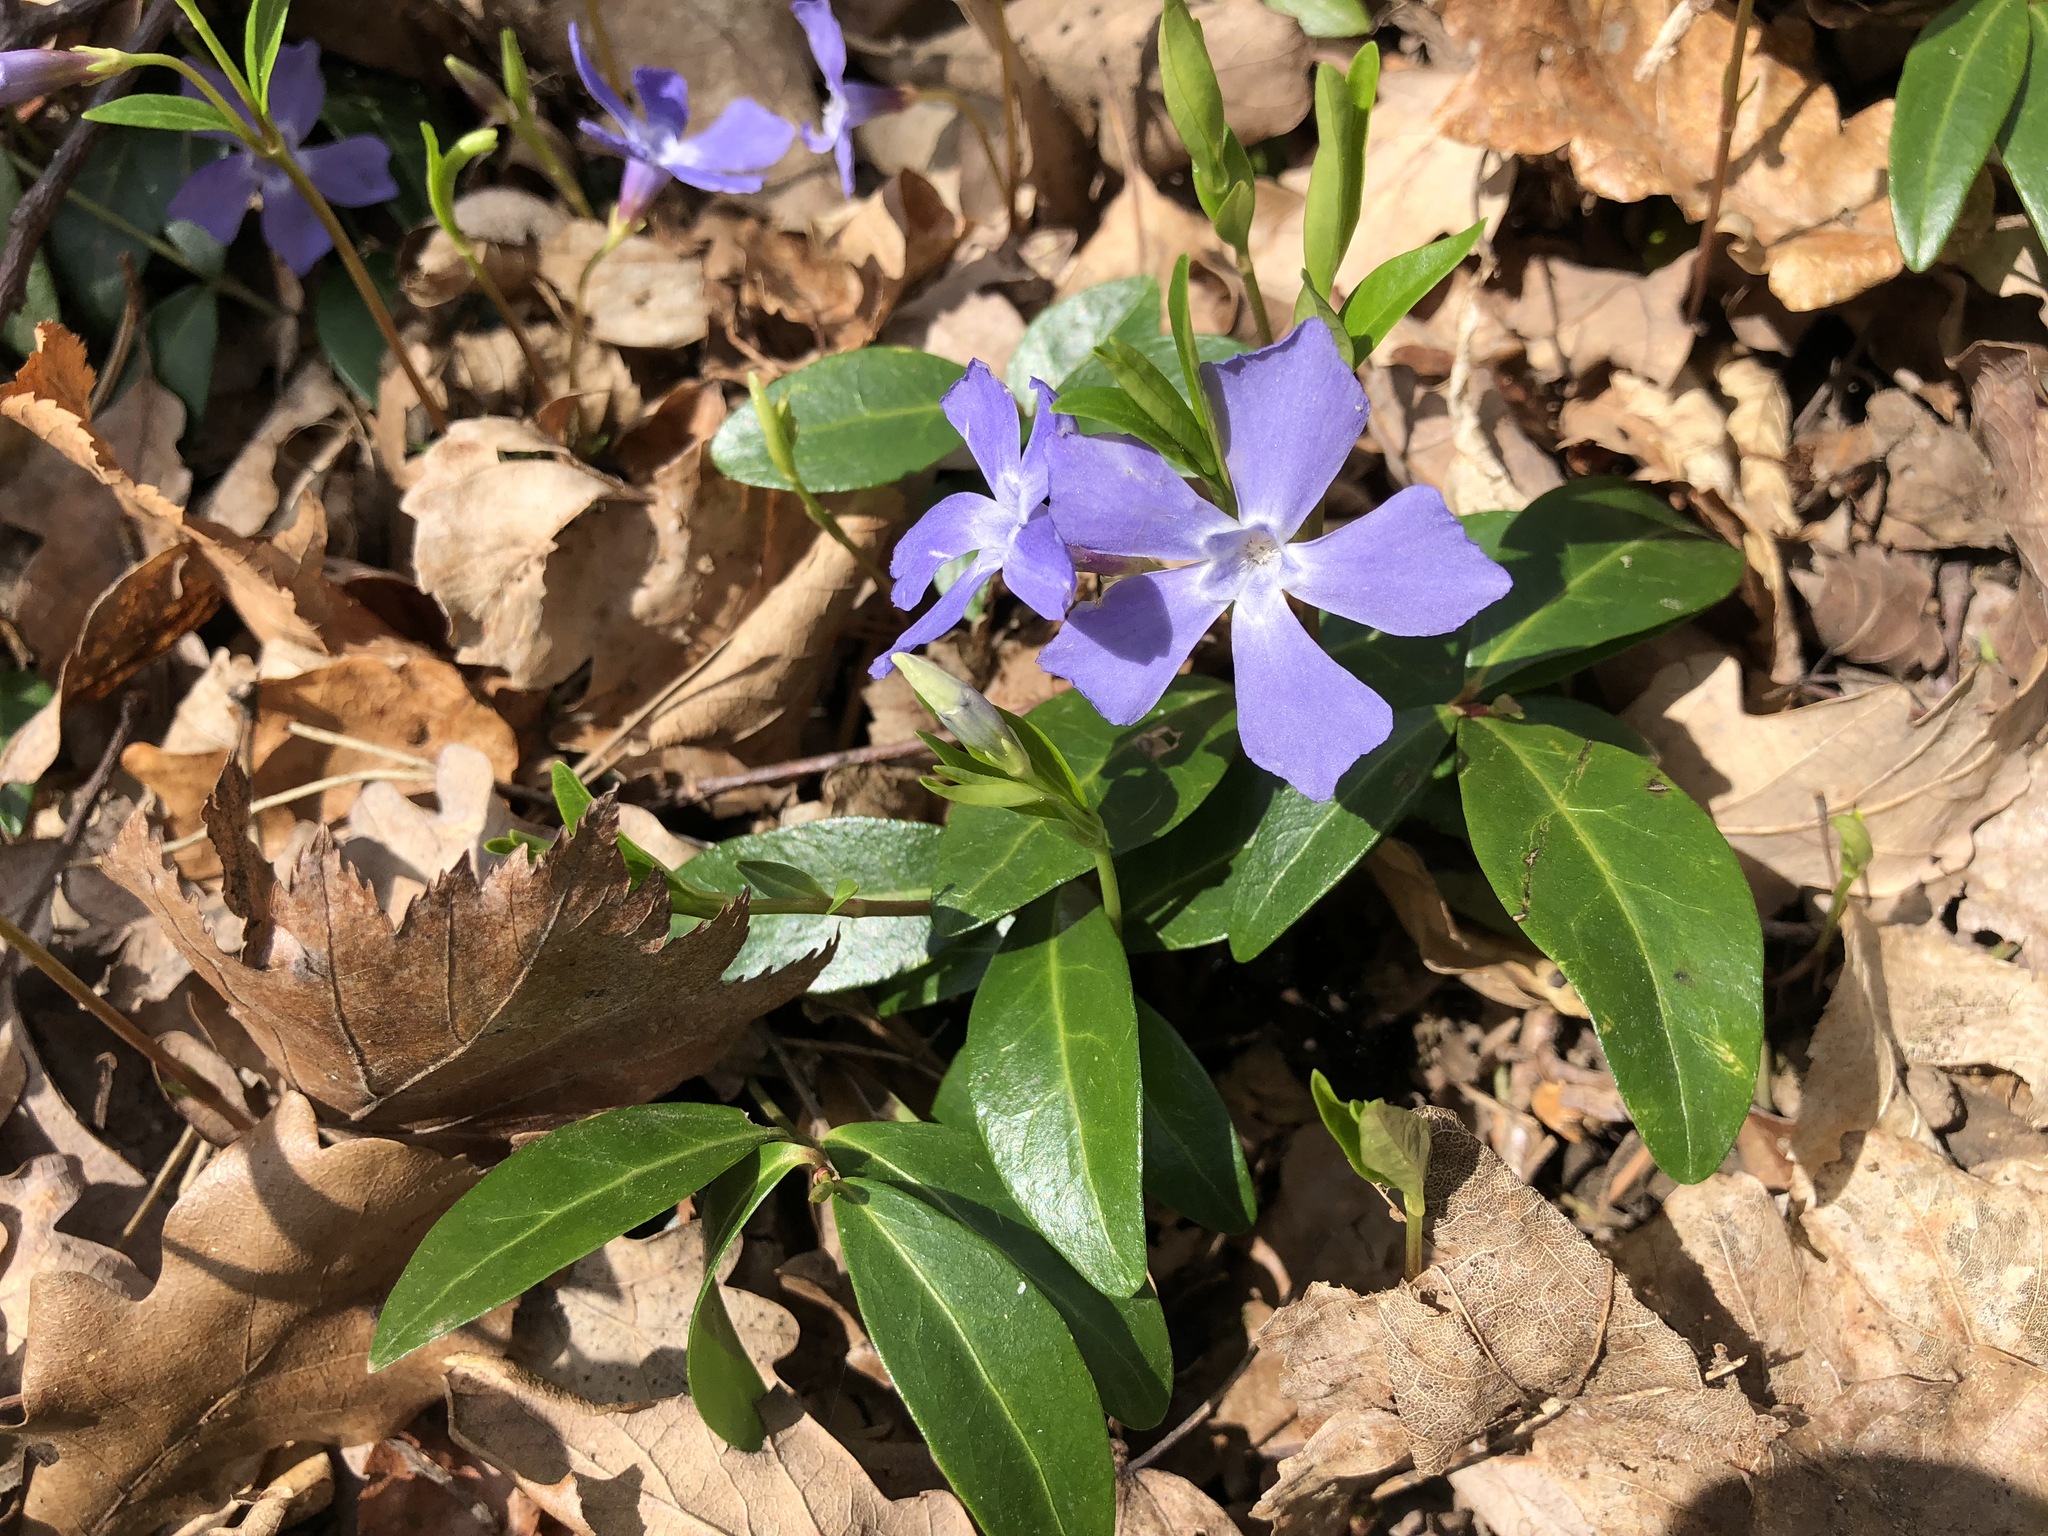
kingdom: Plantae
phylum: Tracheophyta
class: Magnoliopsida
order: Gentianales
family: Apocynaceae
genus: Vinca
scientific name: Vinca minor
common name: Lesser periwinkle
